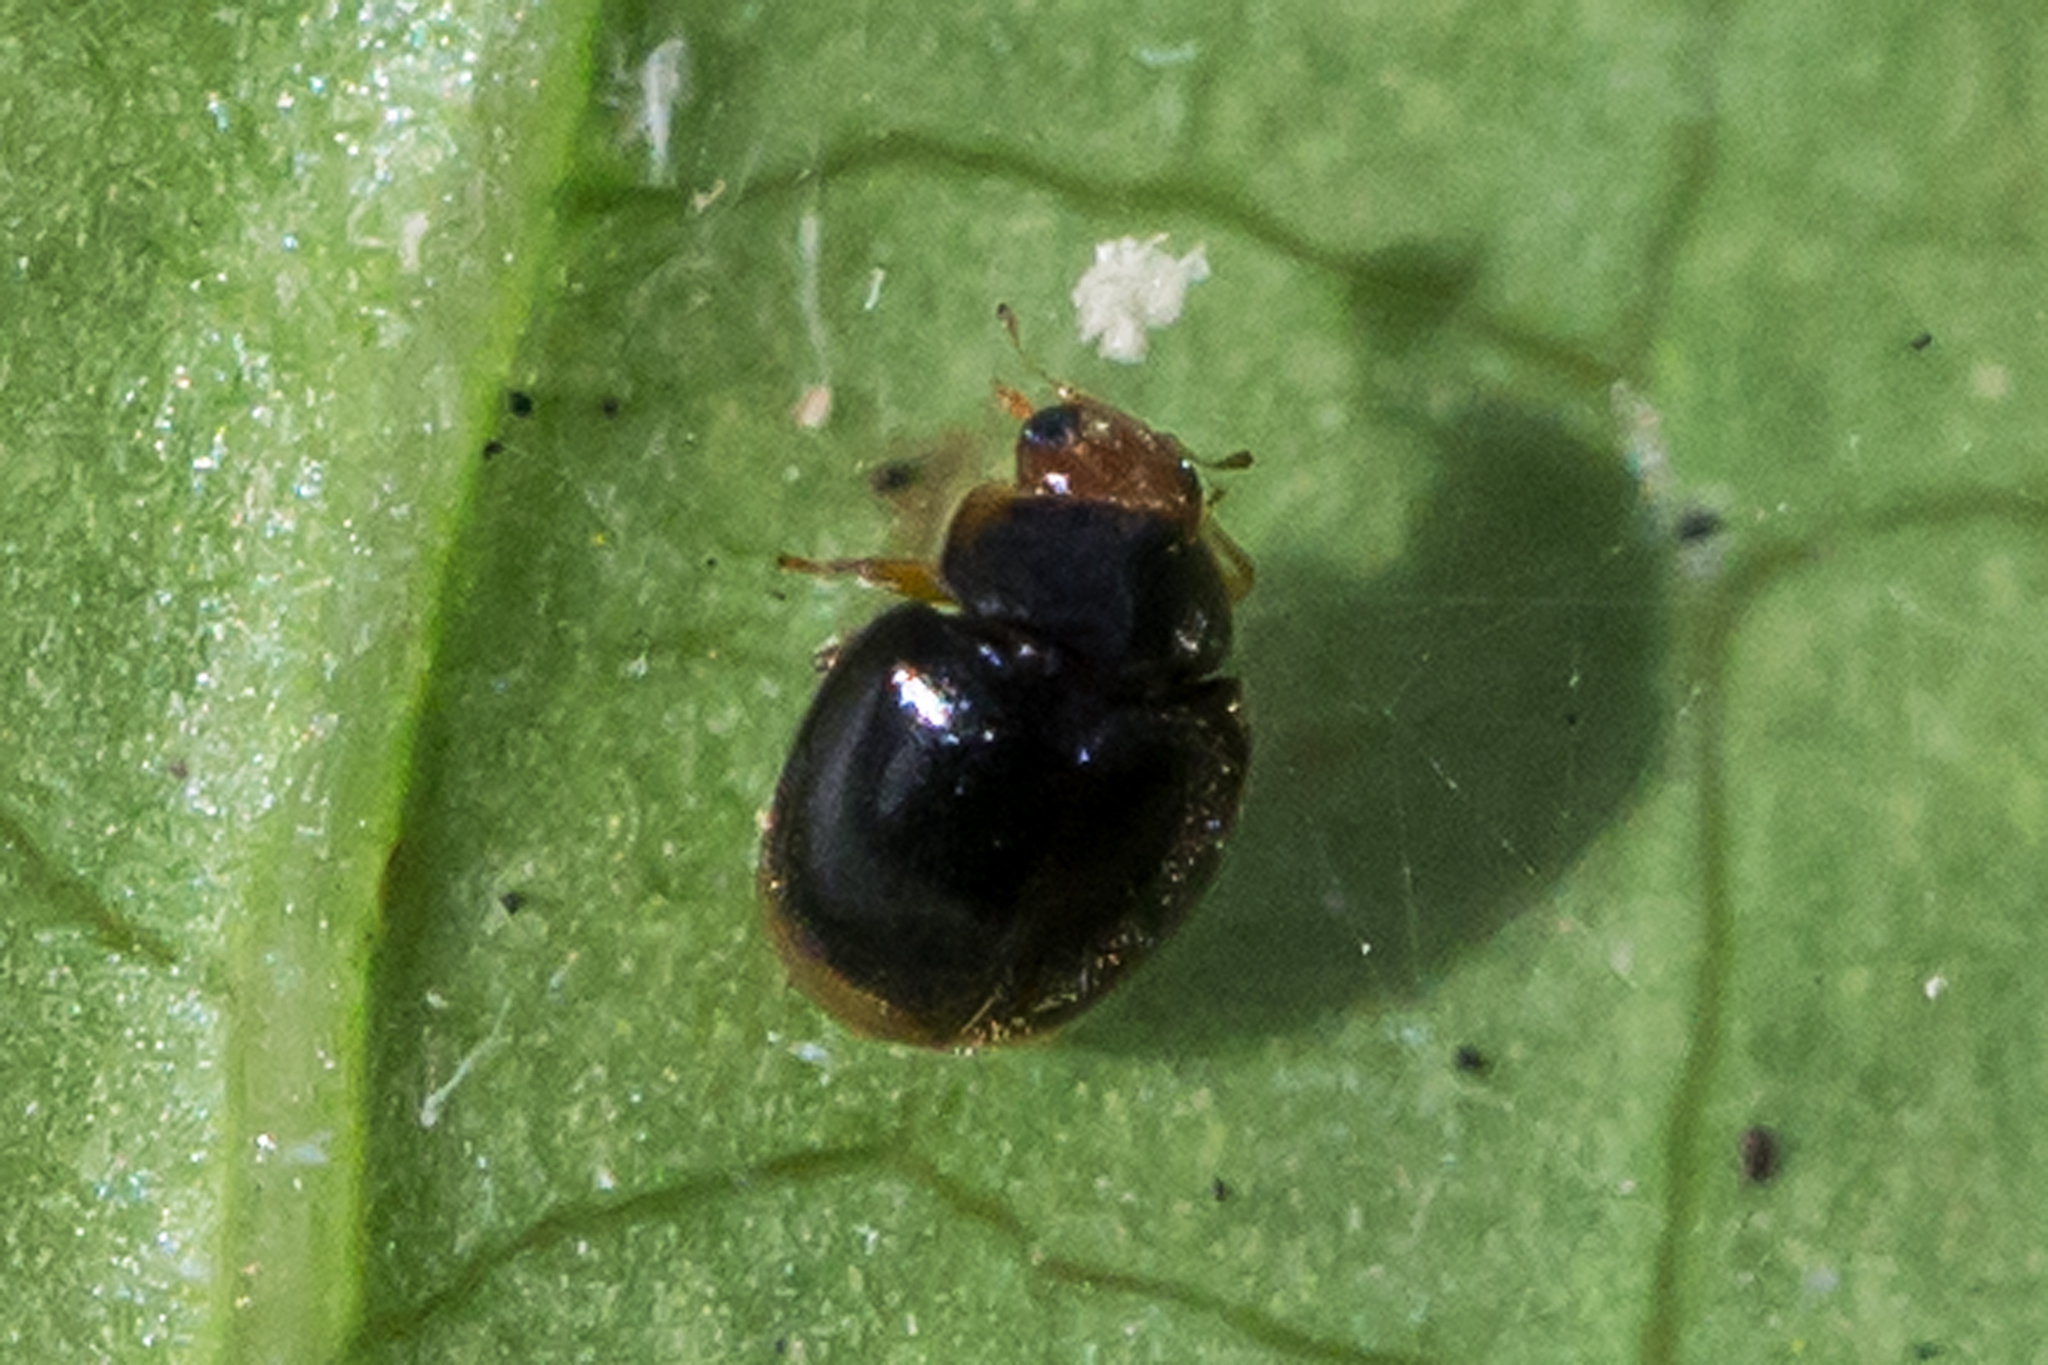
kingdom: Animalia
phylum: Arthropoda
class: Insecta
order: Coleoptera
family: Coccinellidae
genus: Diomus
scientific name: Diomus terminatus
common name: Firefly duskyling
